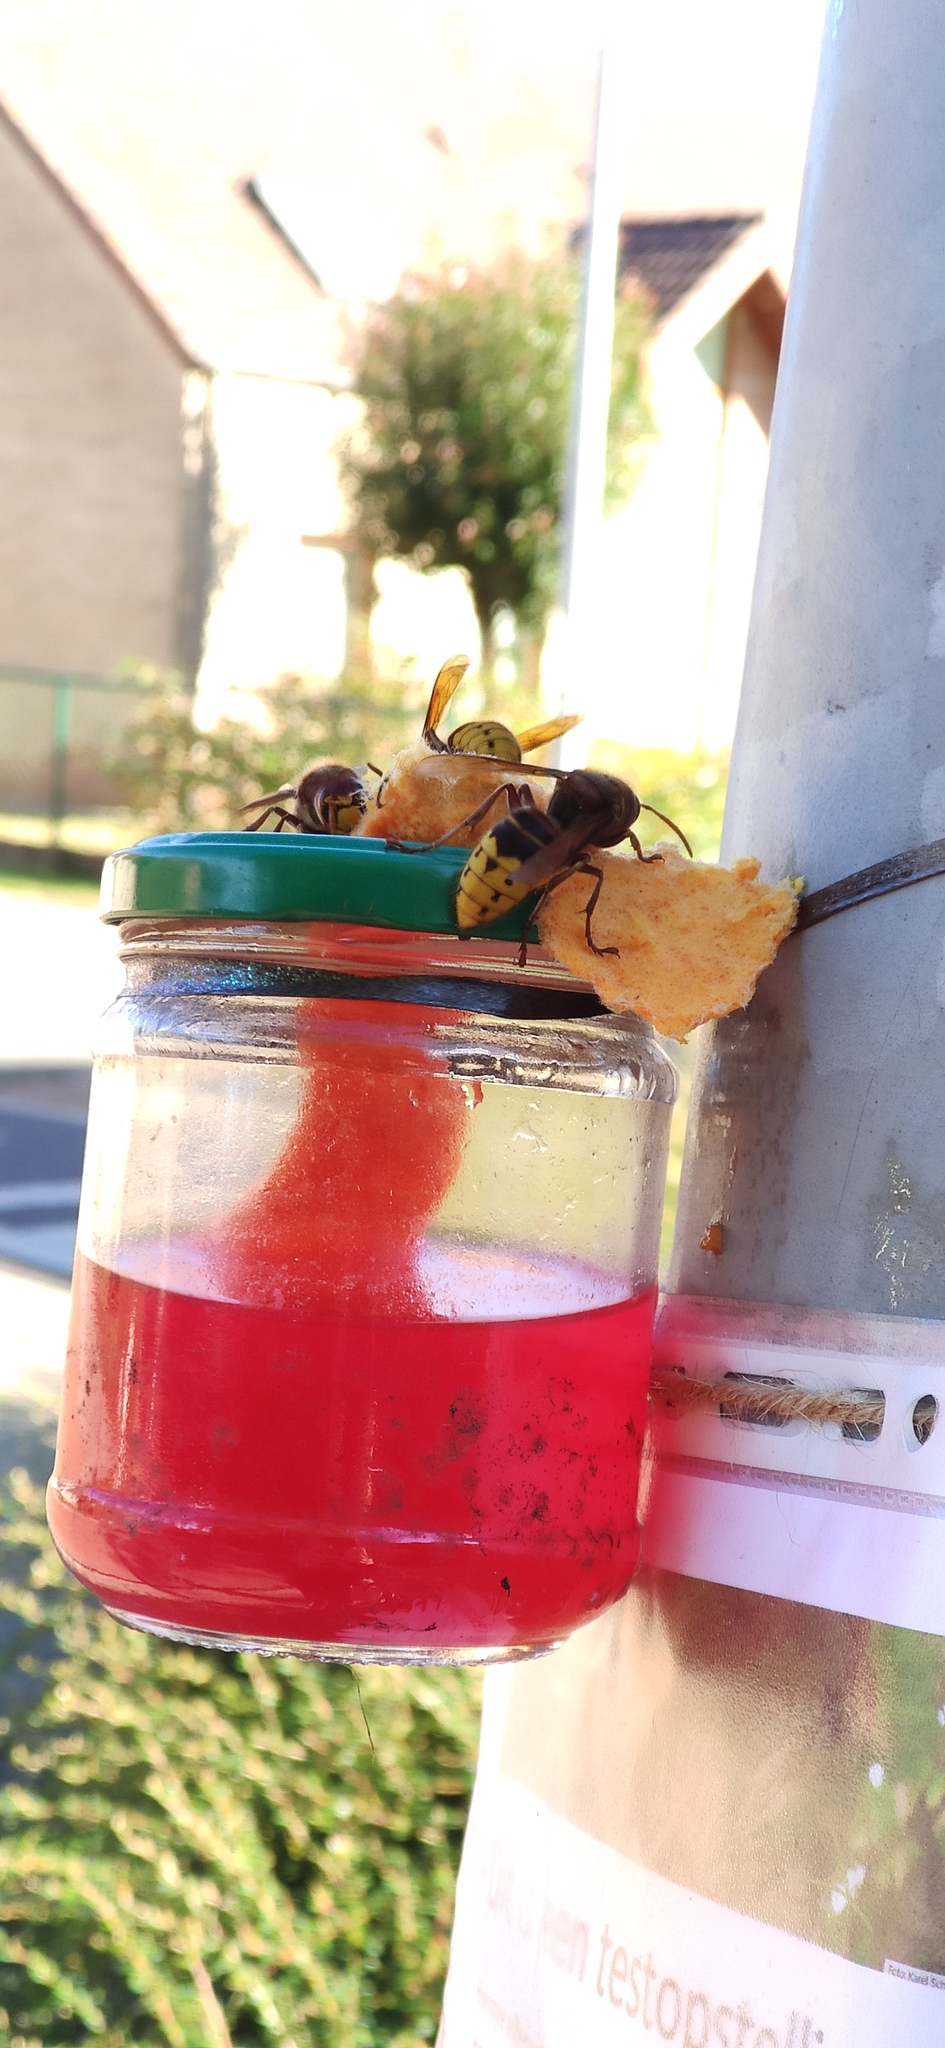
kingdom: Animalia
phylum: Arthropoda
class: Insecta
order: Hymenoptera
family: Vespidae
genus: Vespa
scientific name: Vespa crabro
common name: Hornet
